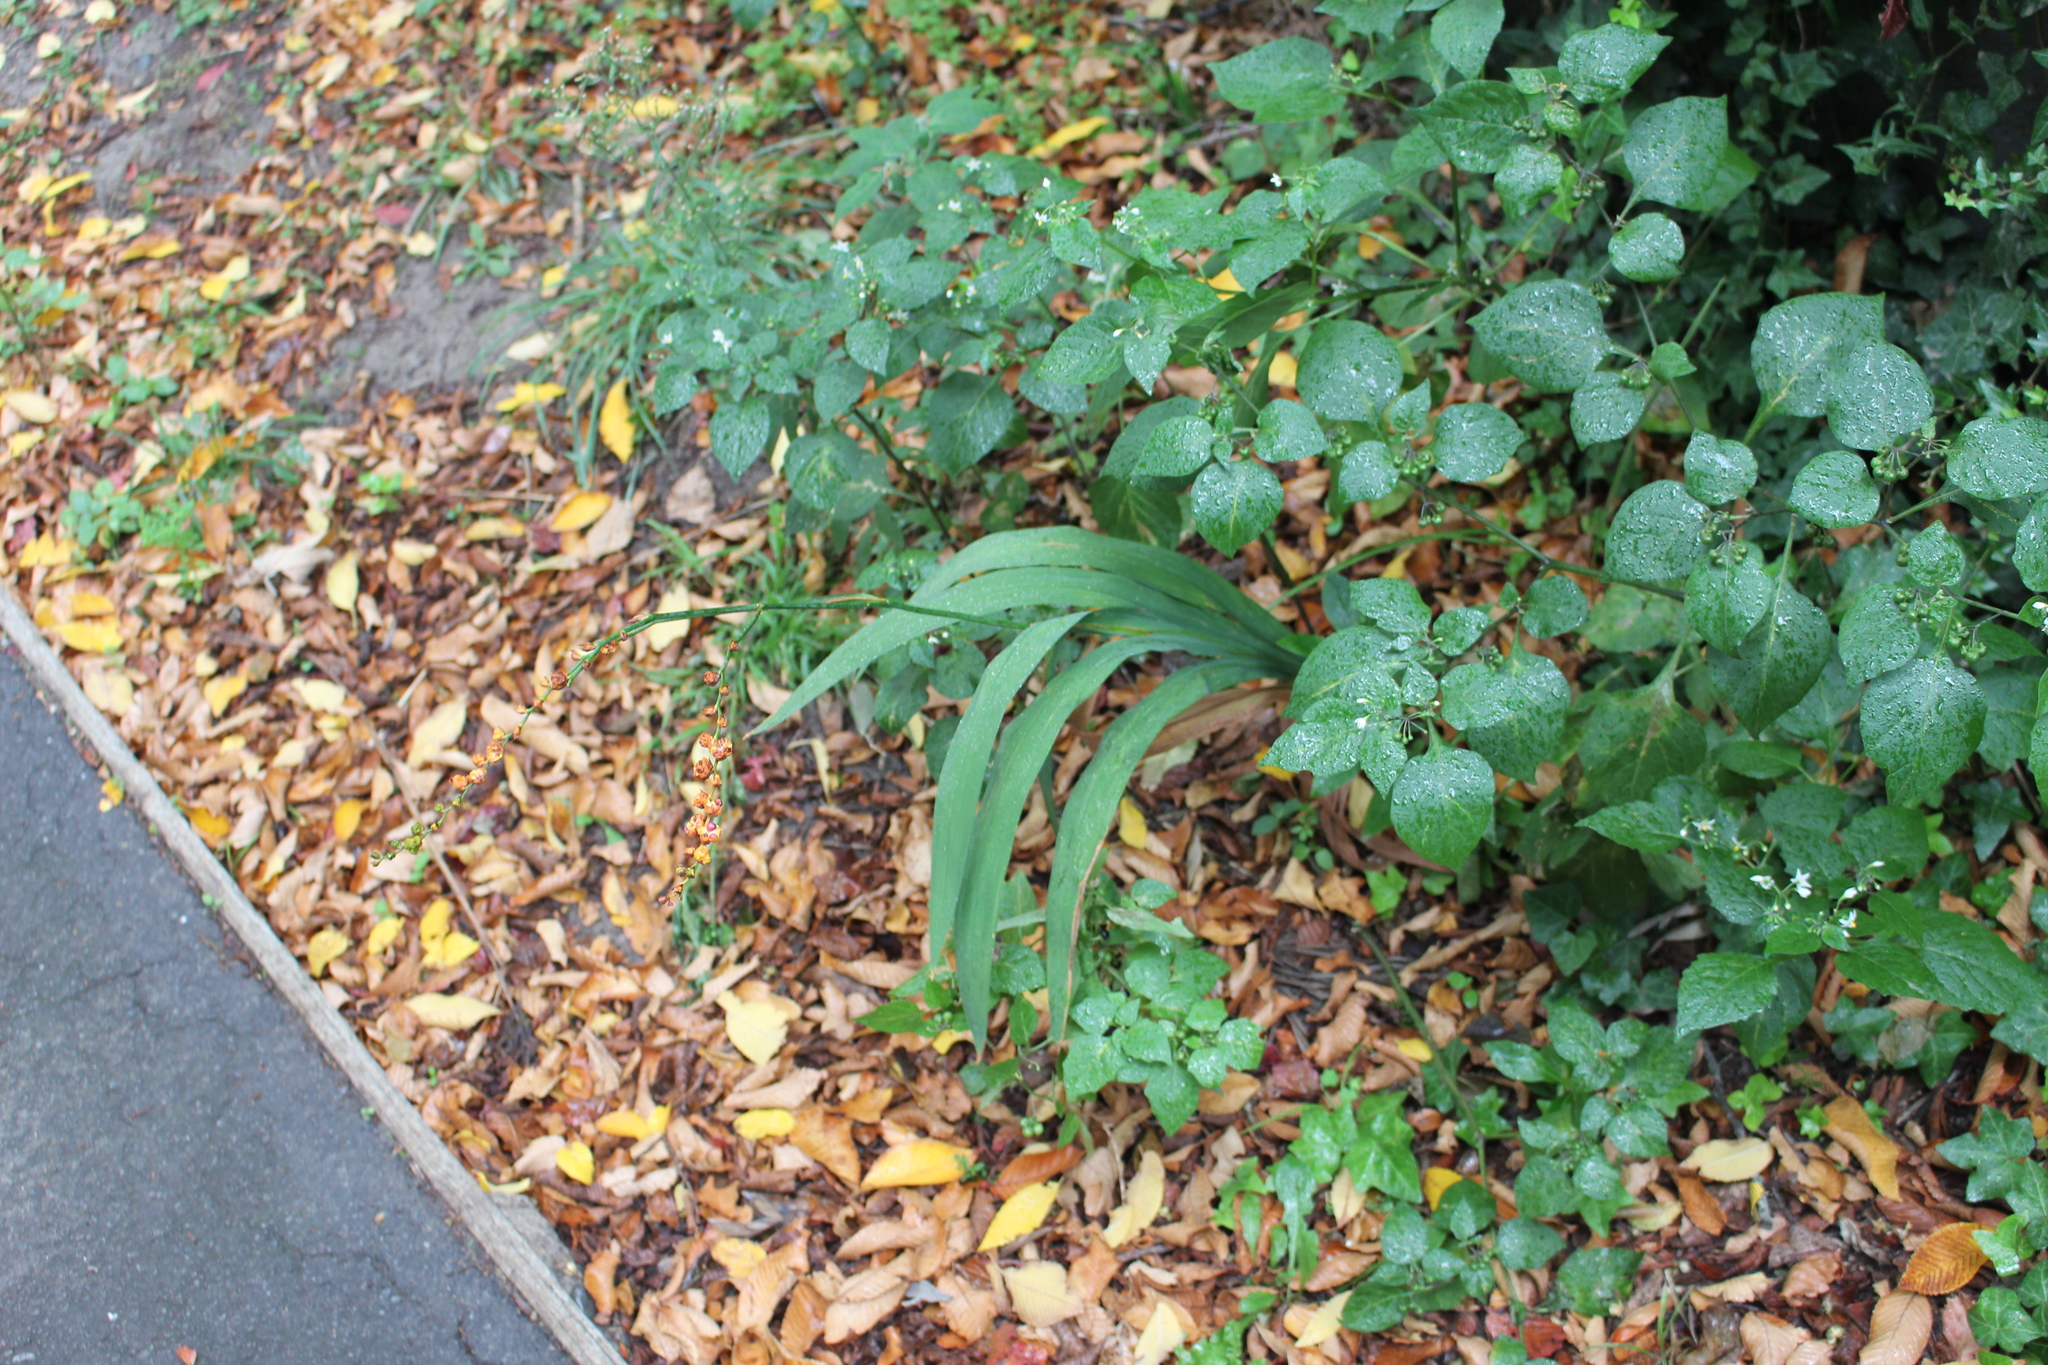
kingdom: Plantae
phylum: Tracheophyta
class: Liliopsida
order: Asparagales
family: Iridaceae
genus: Crocosmia
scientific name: Crocosmia crocosmiiflora
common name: Montbretia
